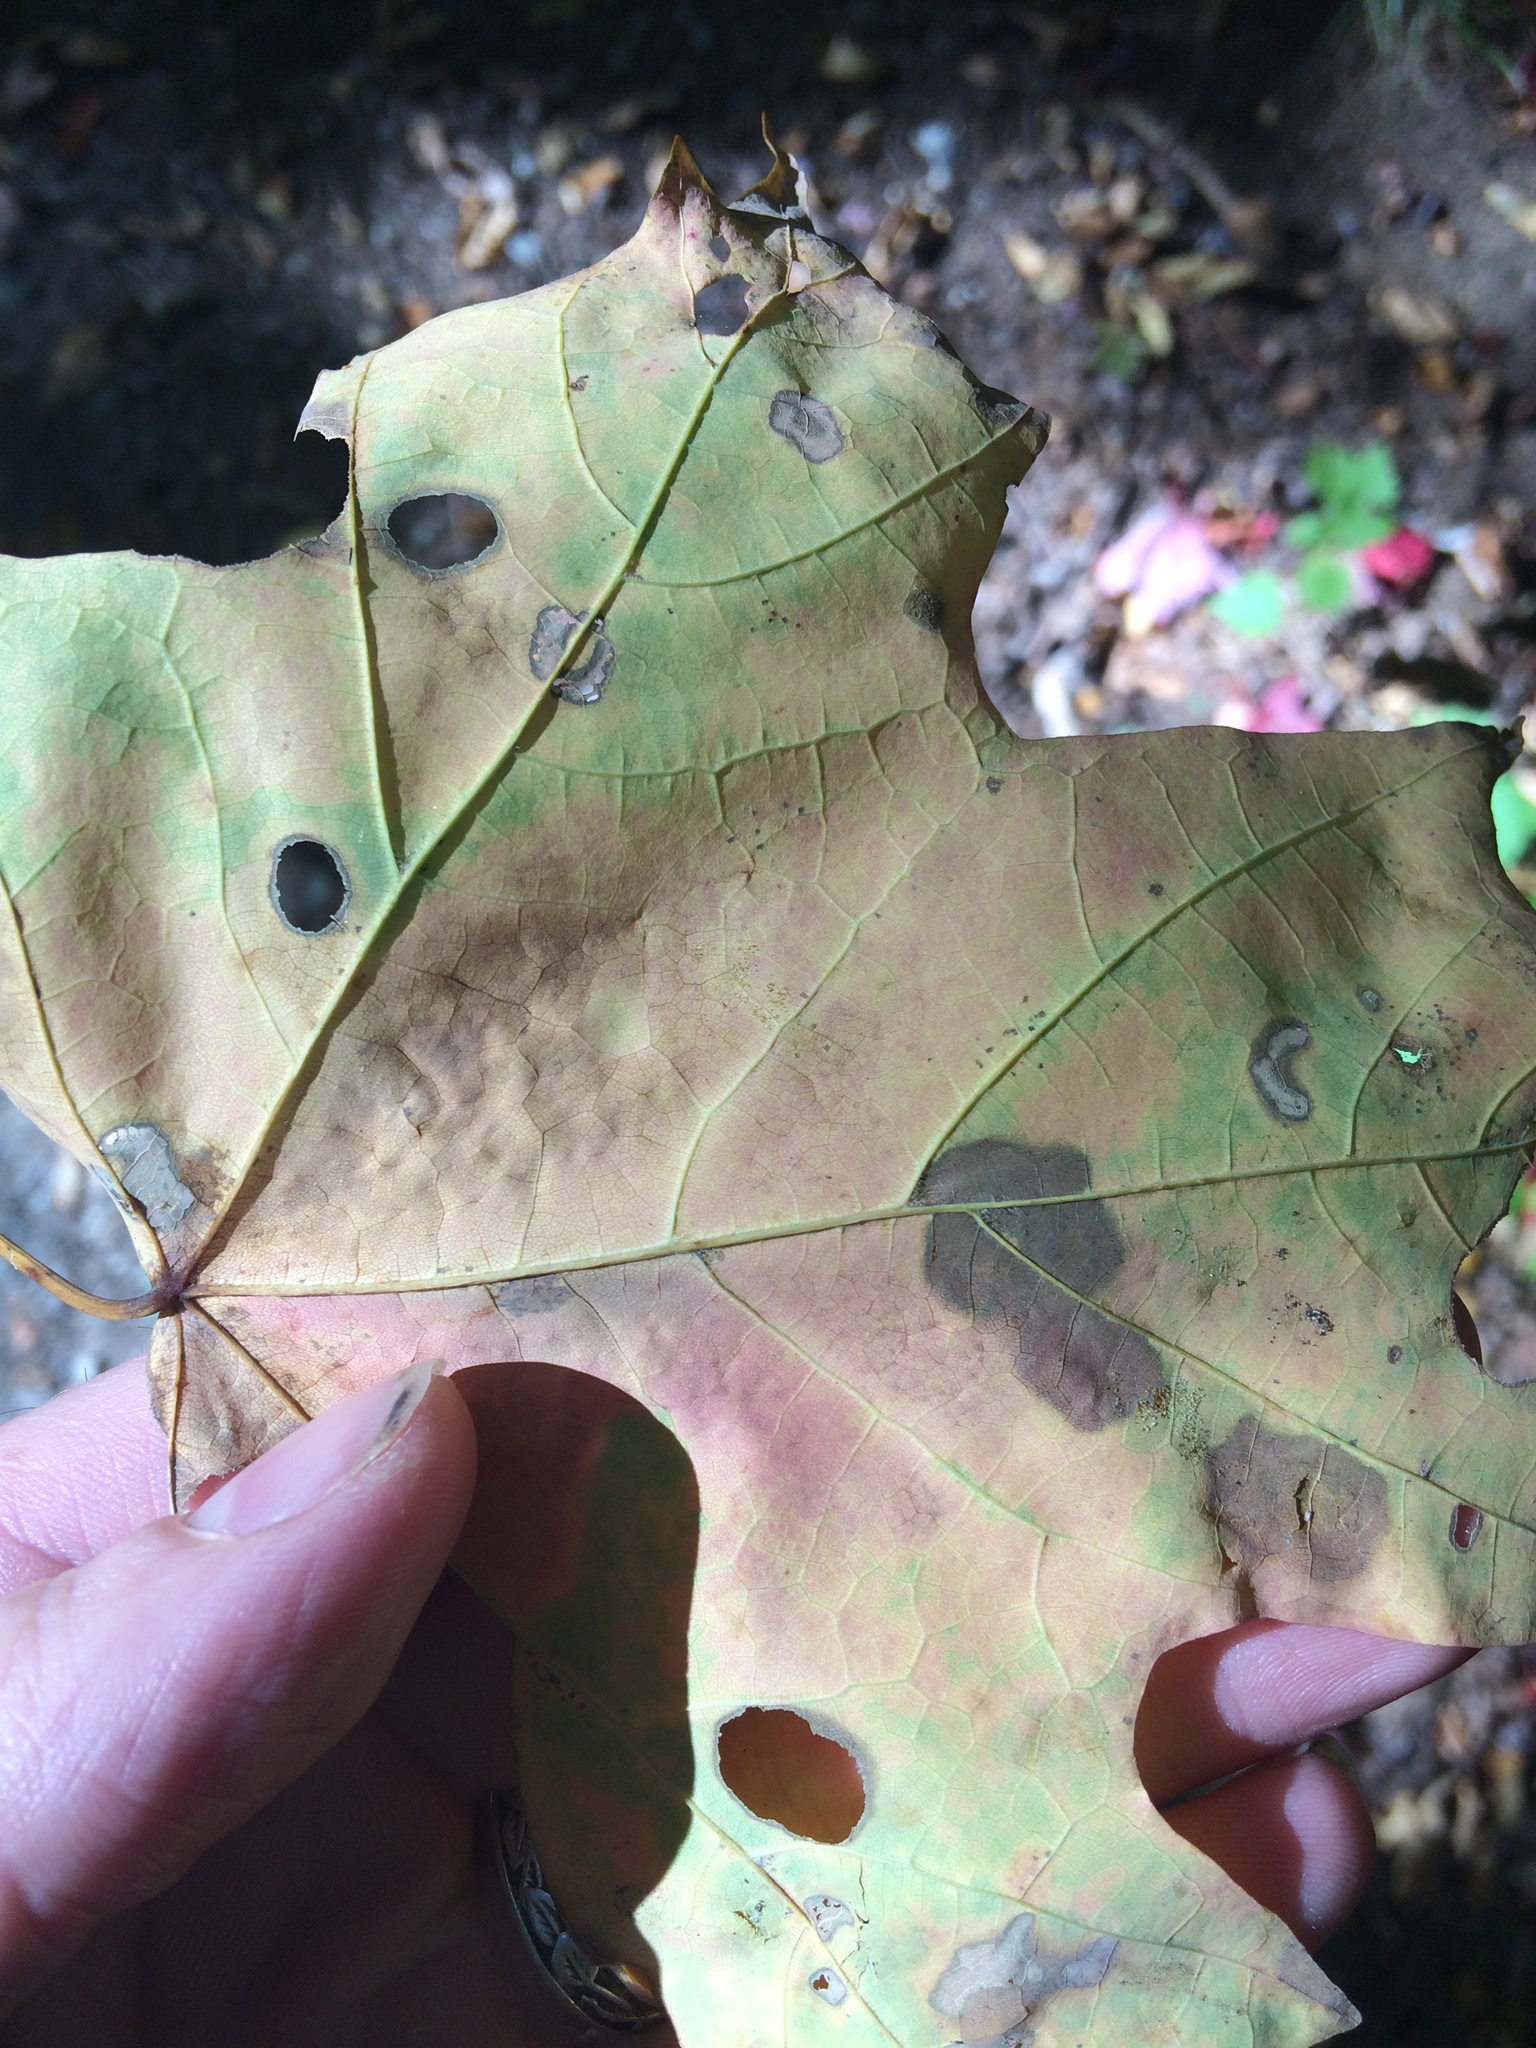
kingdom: Animalia
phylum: Arthropoda
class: Insecta
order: Lepidoptera
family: Incurvariidae
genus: Paraclemensia
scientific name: Paraclemensia acerifoliella
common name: Maple leafcutter
